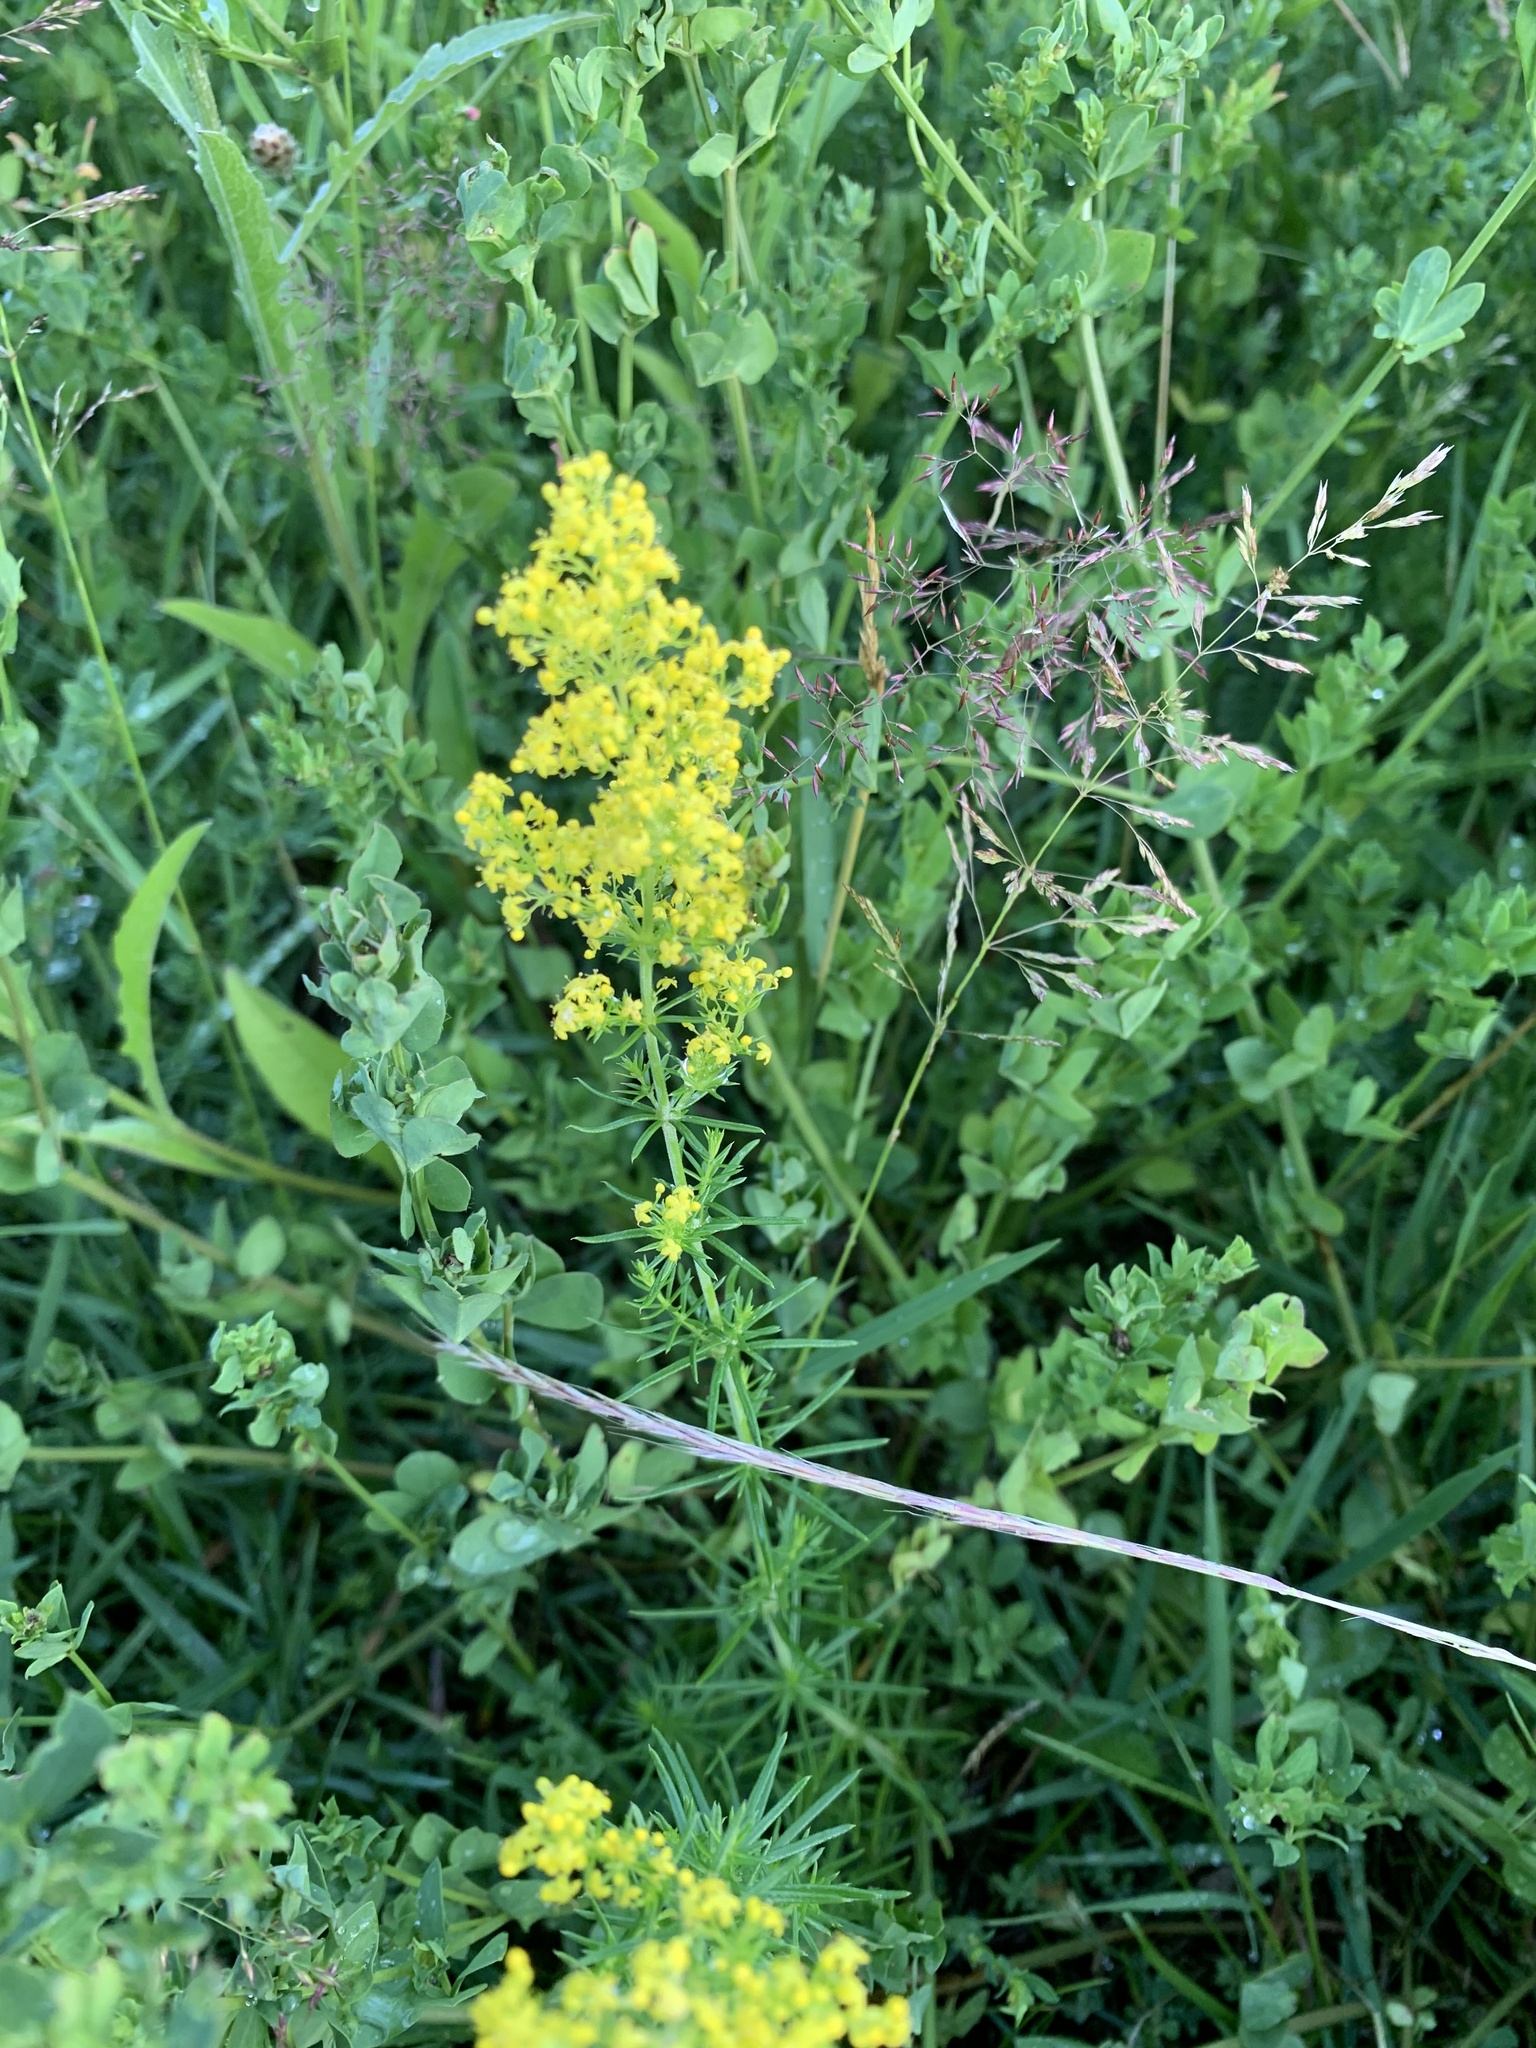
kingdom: Plantae
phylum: Tracheophyta
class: Magnoliopsida
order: Gentianales
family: Rubiaceae
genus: Galium
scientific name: Galium verum
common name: Lady's bedstraw
